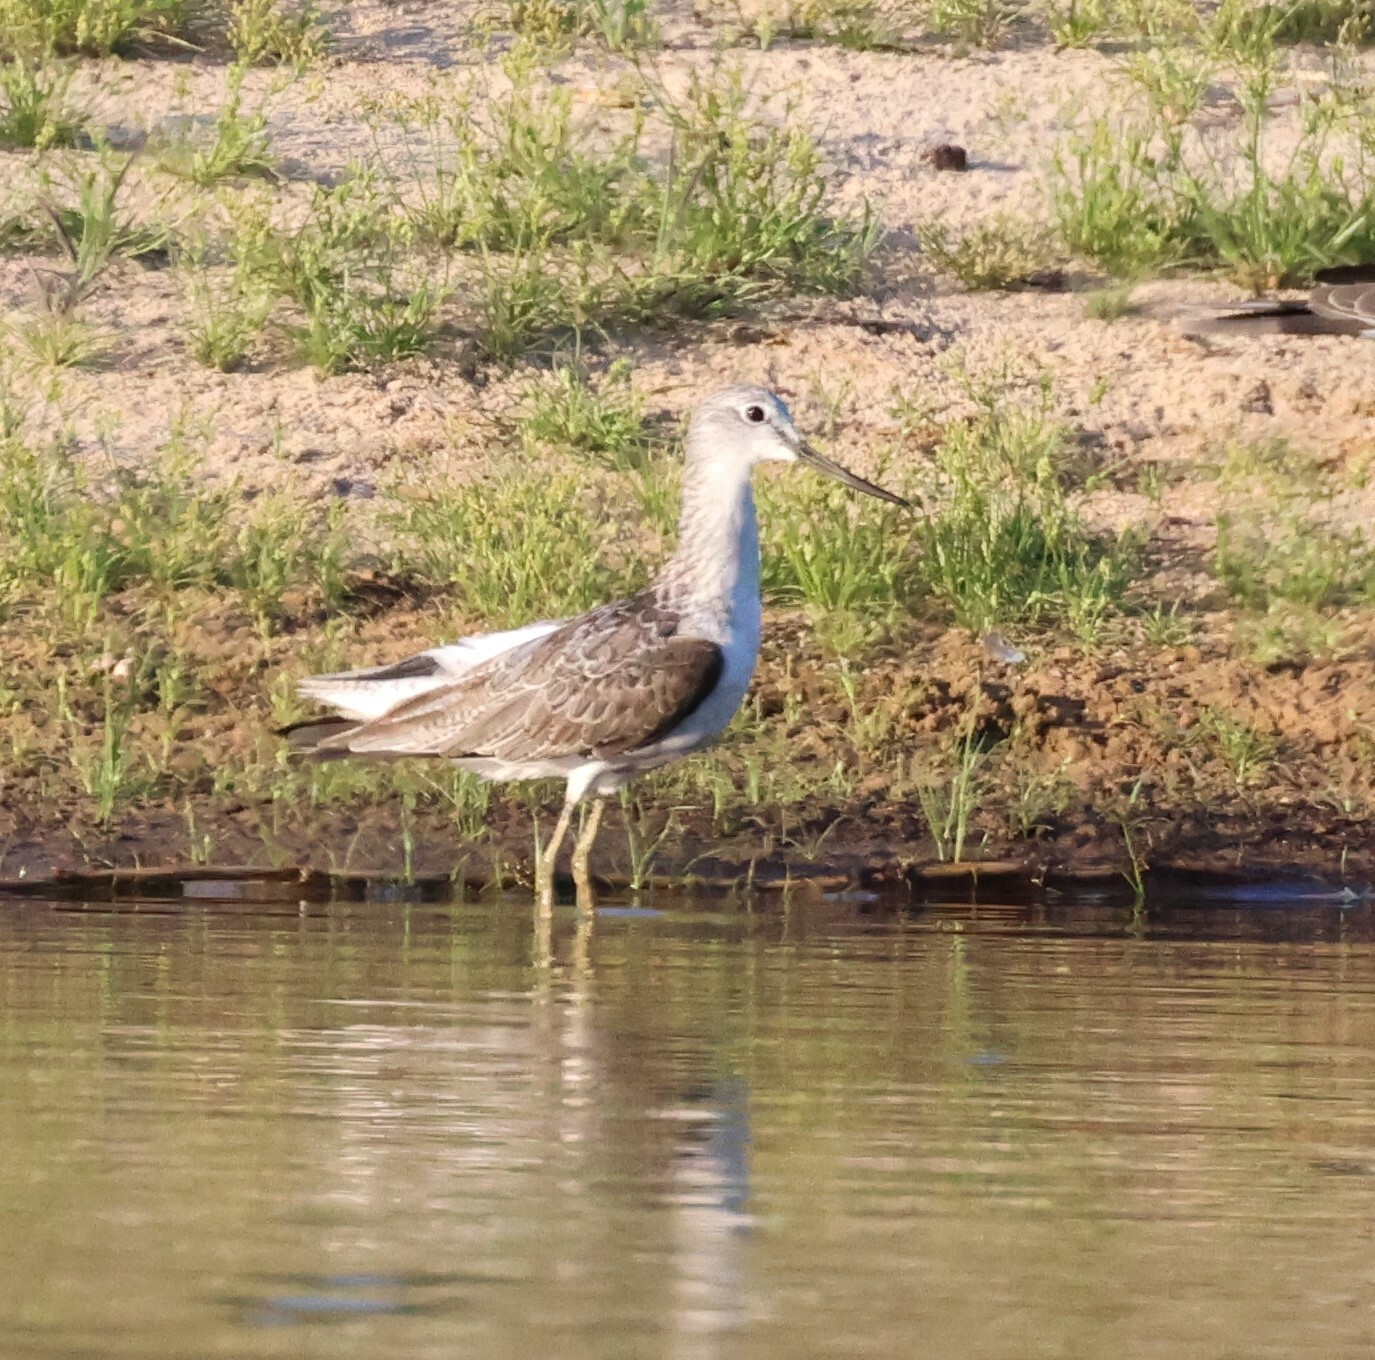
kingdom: Animalia
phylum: Chordata
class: Aves
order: Charadriiformes
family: Scolopacidae
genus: Tringa
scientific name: Tringa nebularia
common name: Common greenshank
